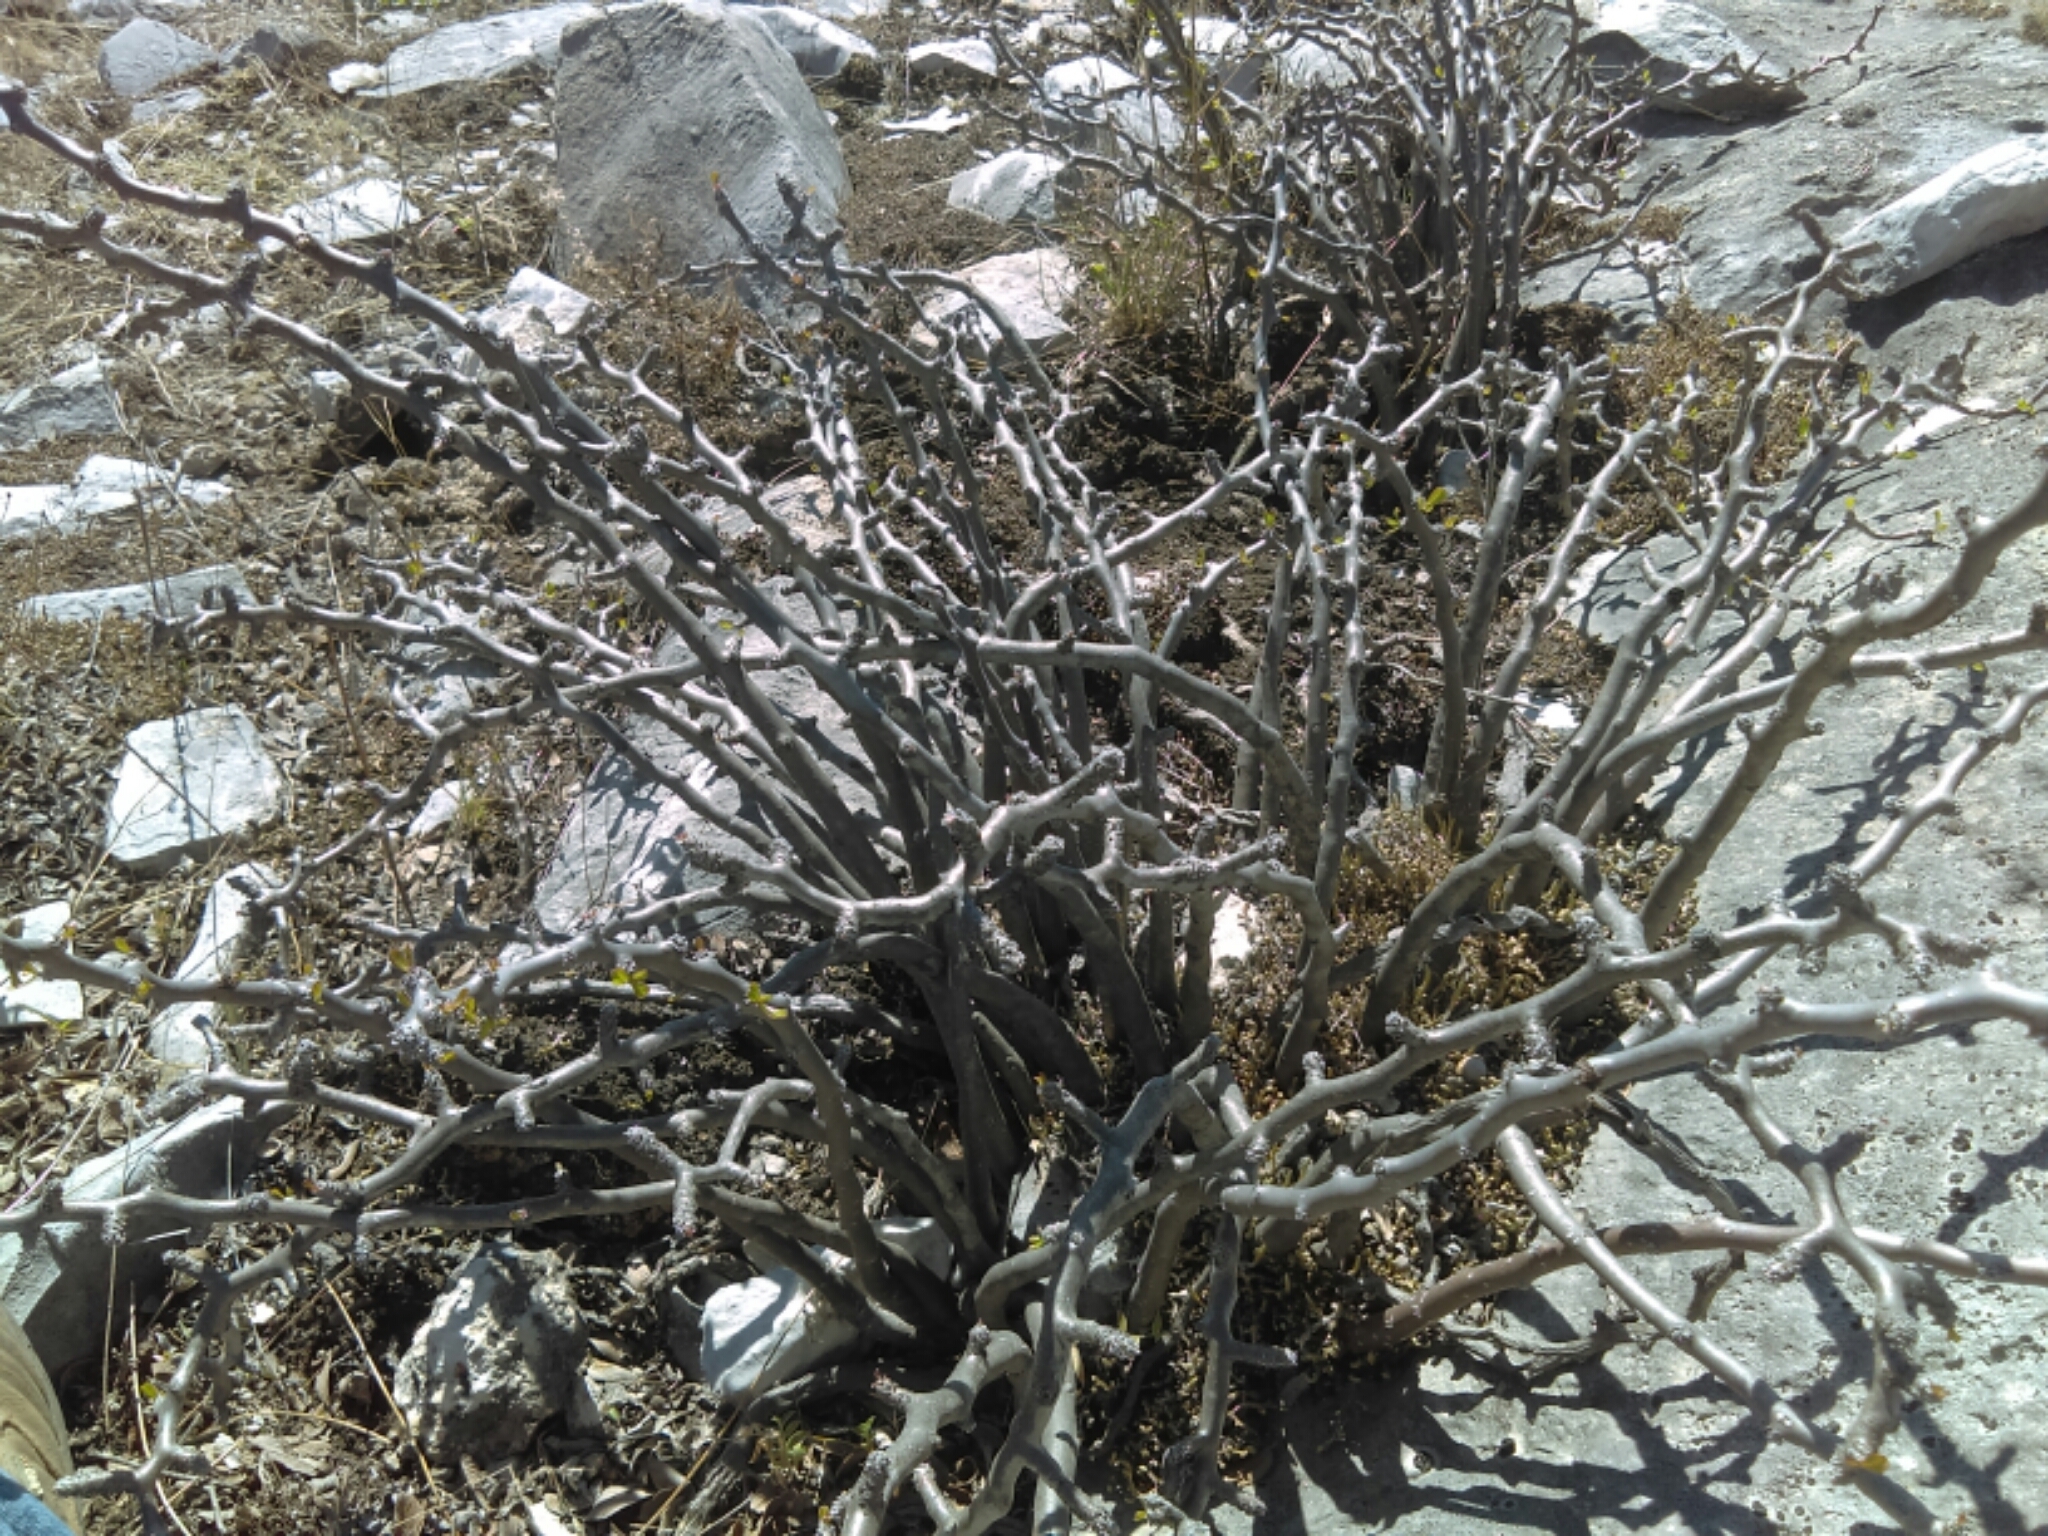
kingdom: Plantae
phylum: Tracheophyta
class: Magnoliopsida
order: Malpighiales
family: Euphorbiaceae
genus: Jatropha
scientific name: Jatropha dioica
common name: Leatherstem
